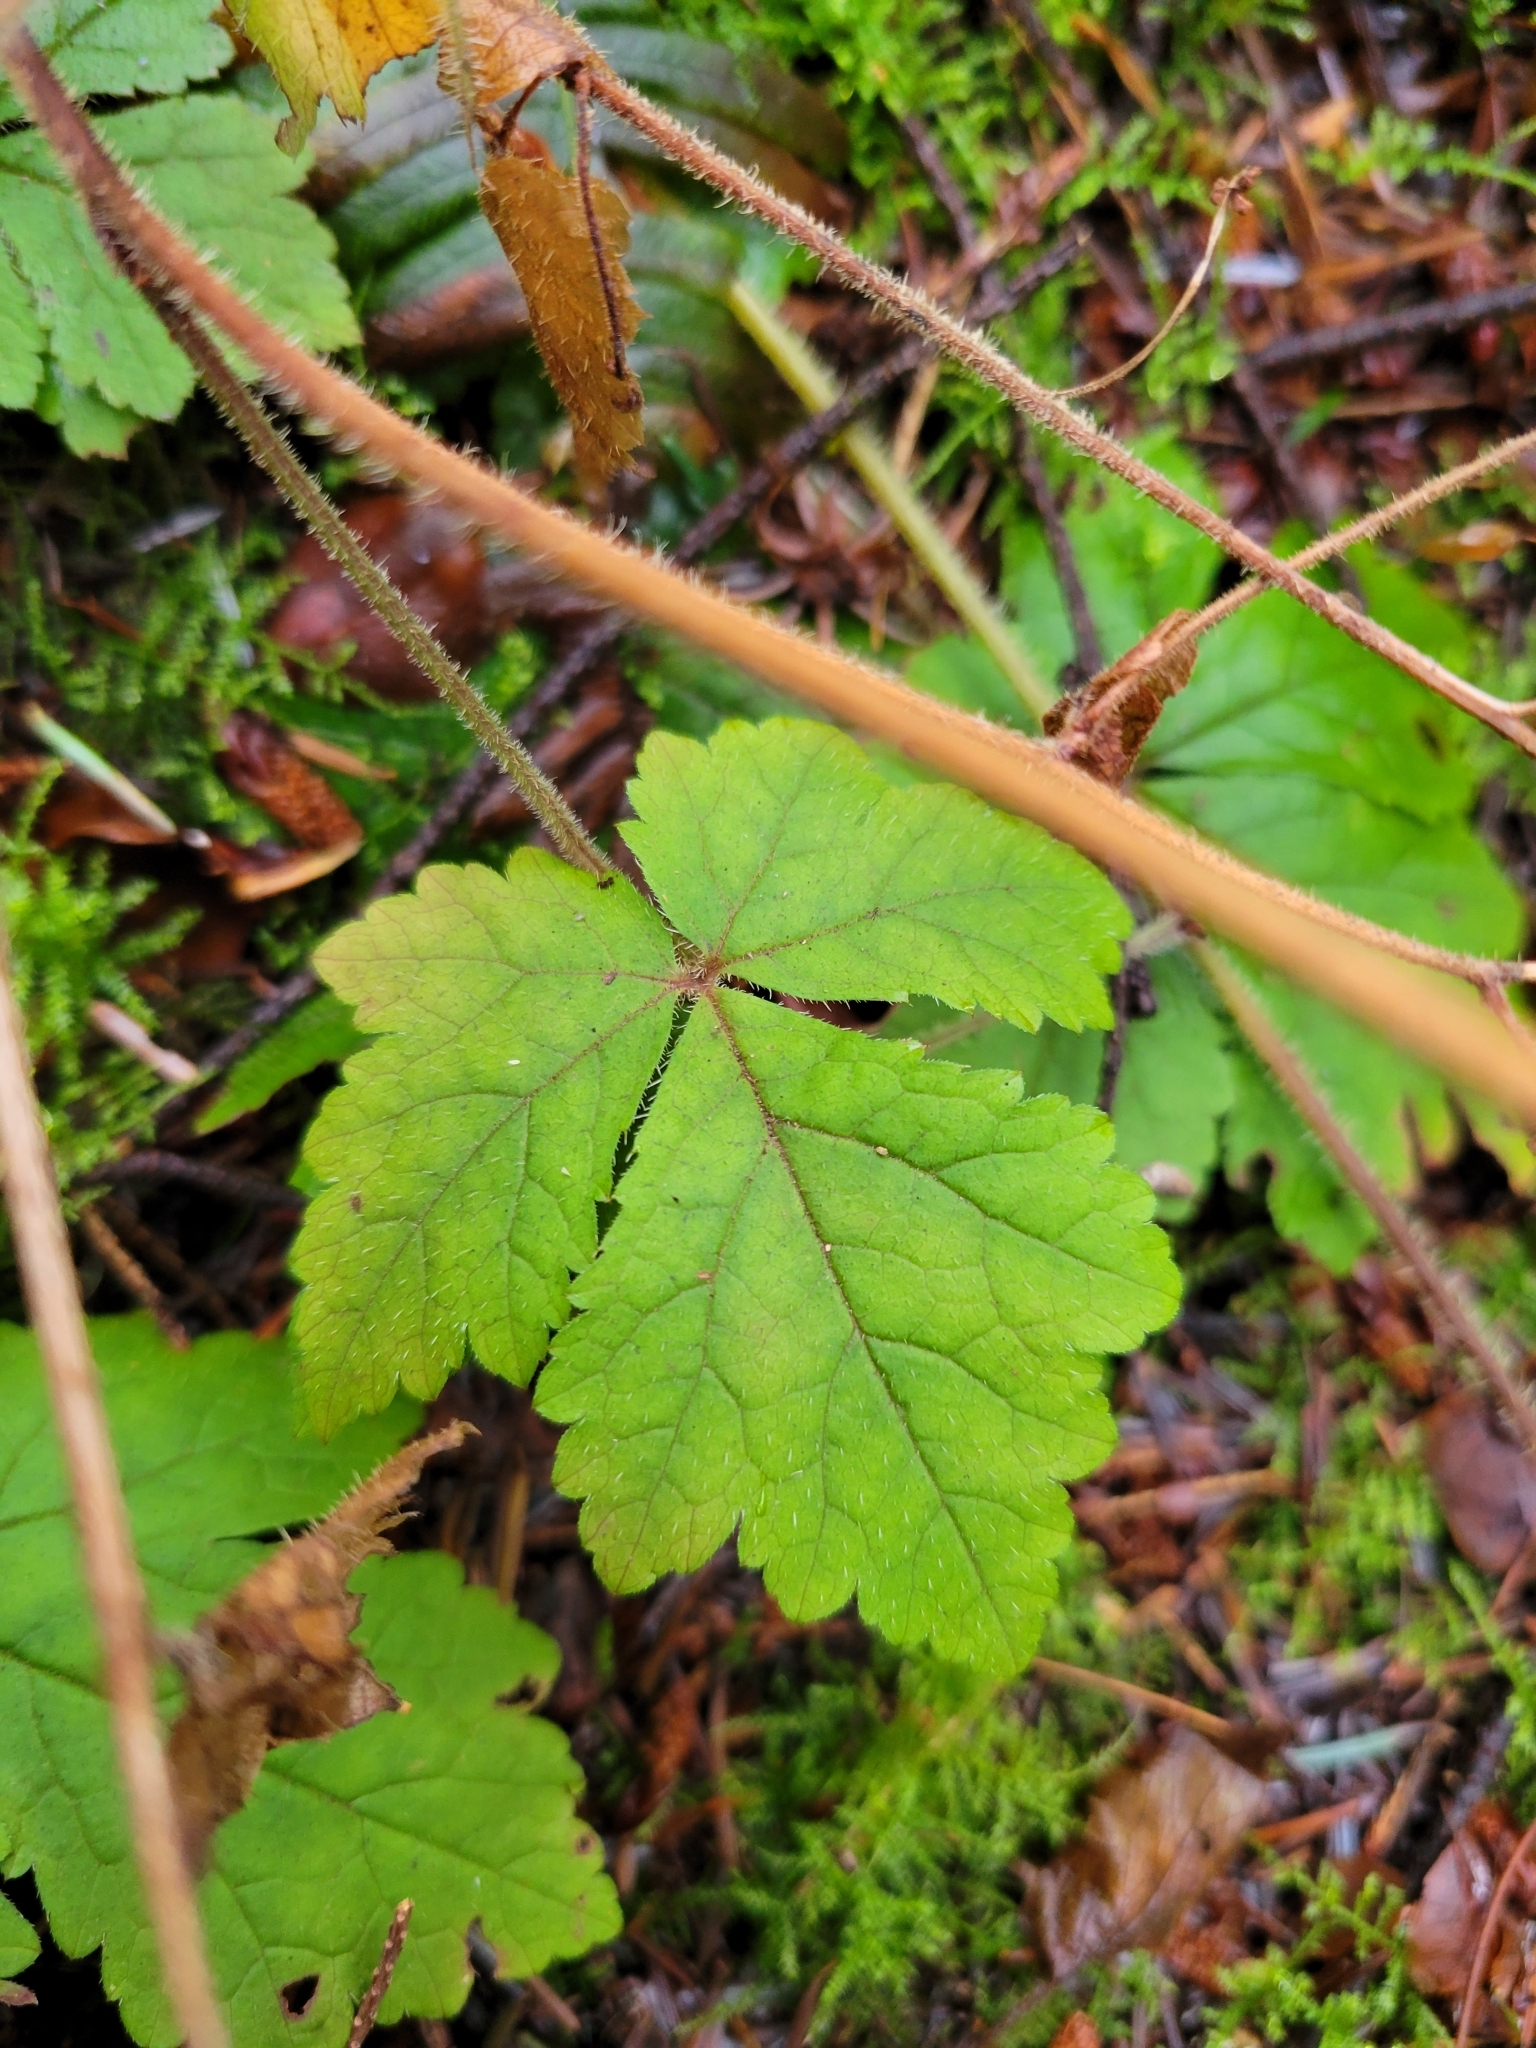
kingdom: Plantae
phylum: Tracheophyta
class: Magnoliopsida
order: Saxifragales
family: Saxifragaceae
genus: Tiarella
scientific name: Tiarella trifoliata
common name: Sugar-scoop
